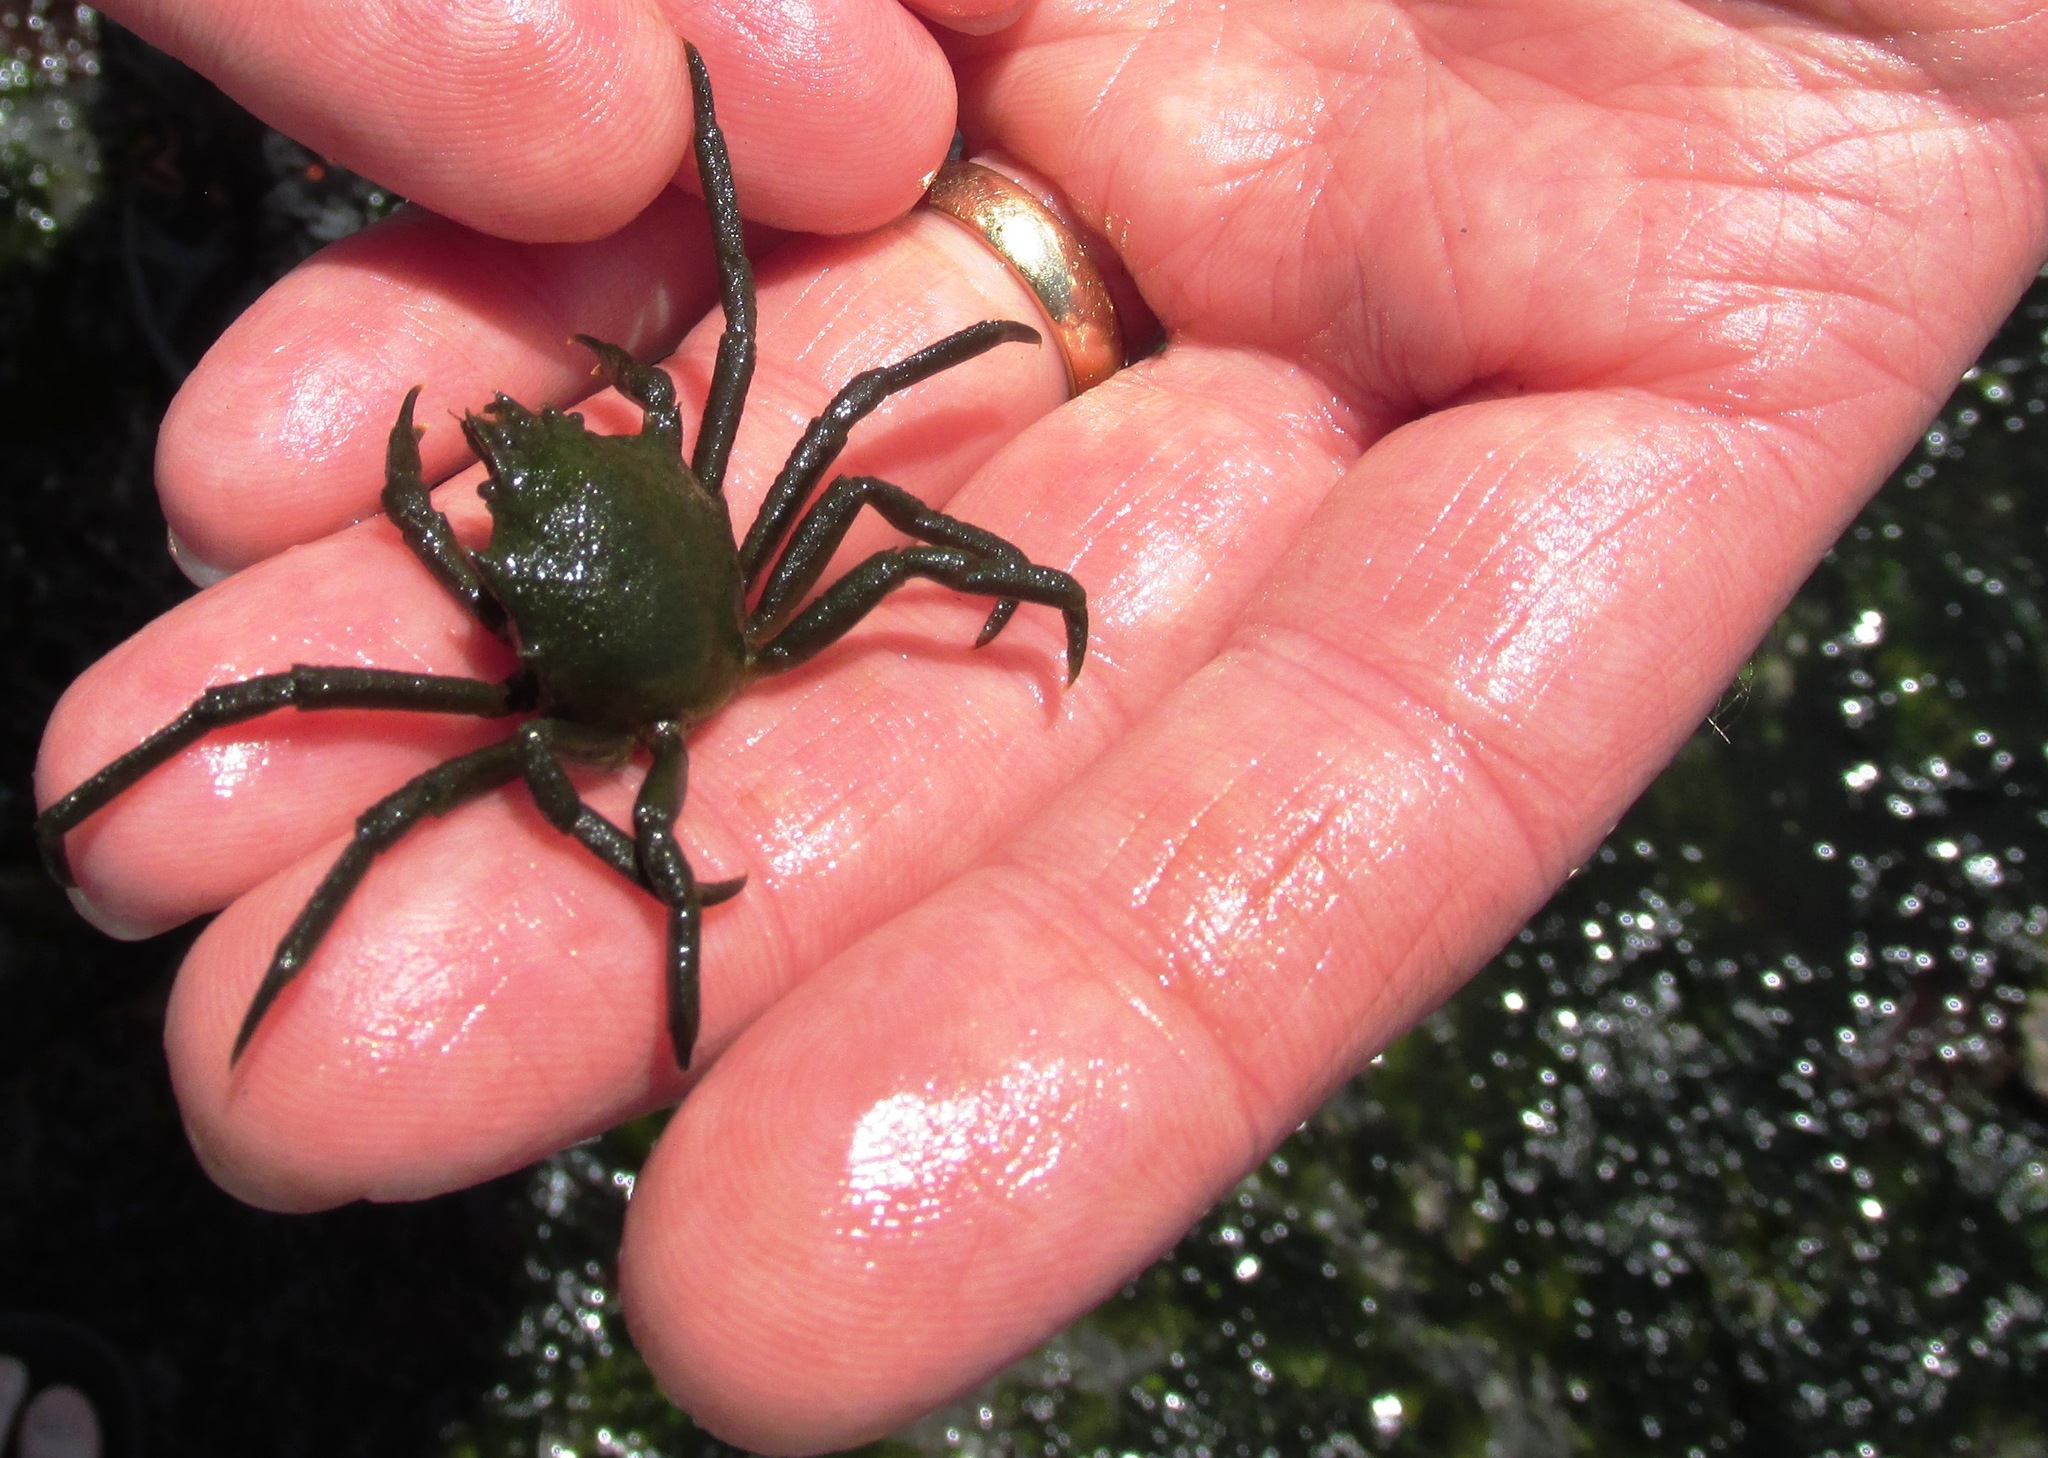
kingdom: Animalia
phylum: Arthropoda
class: Malacostraca
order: Decapoda
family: Epialtidae
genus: Pugettia
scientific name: Pugettia producta
